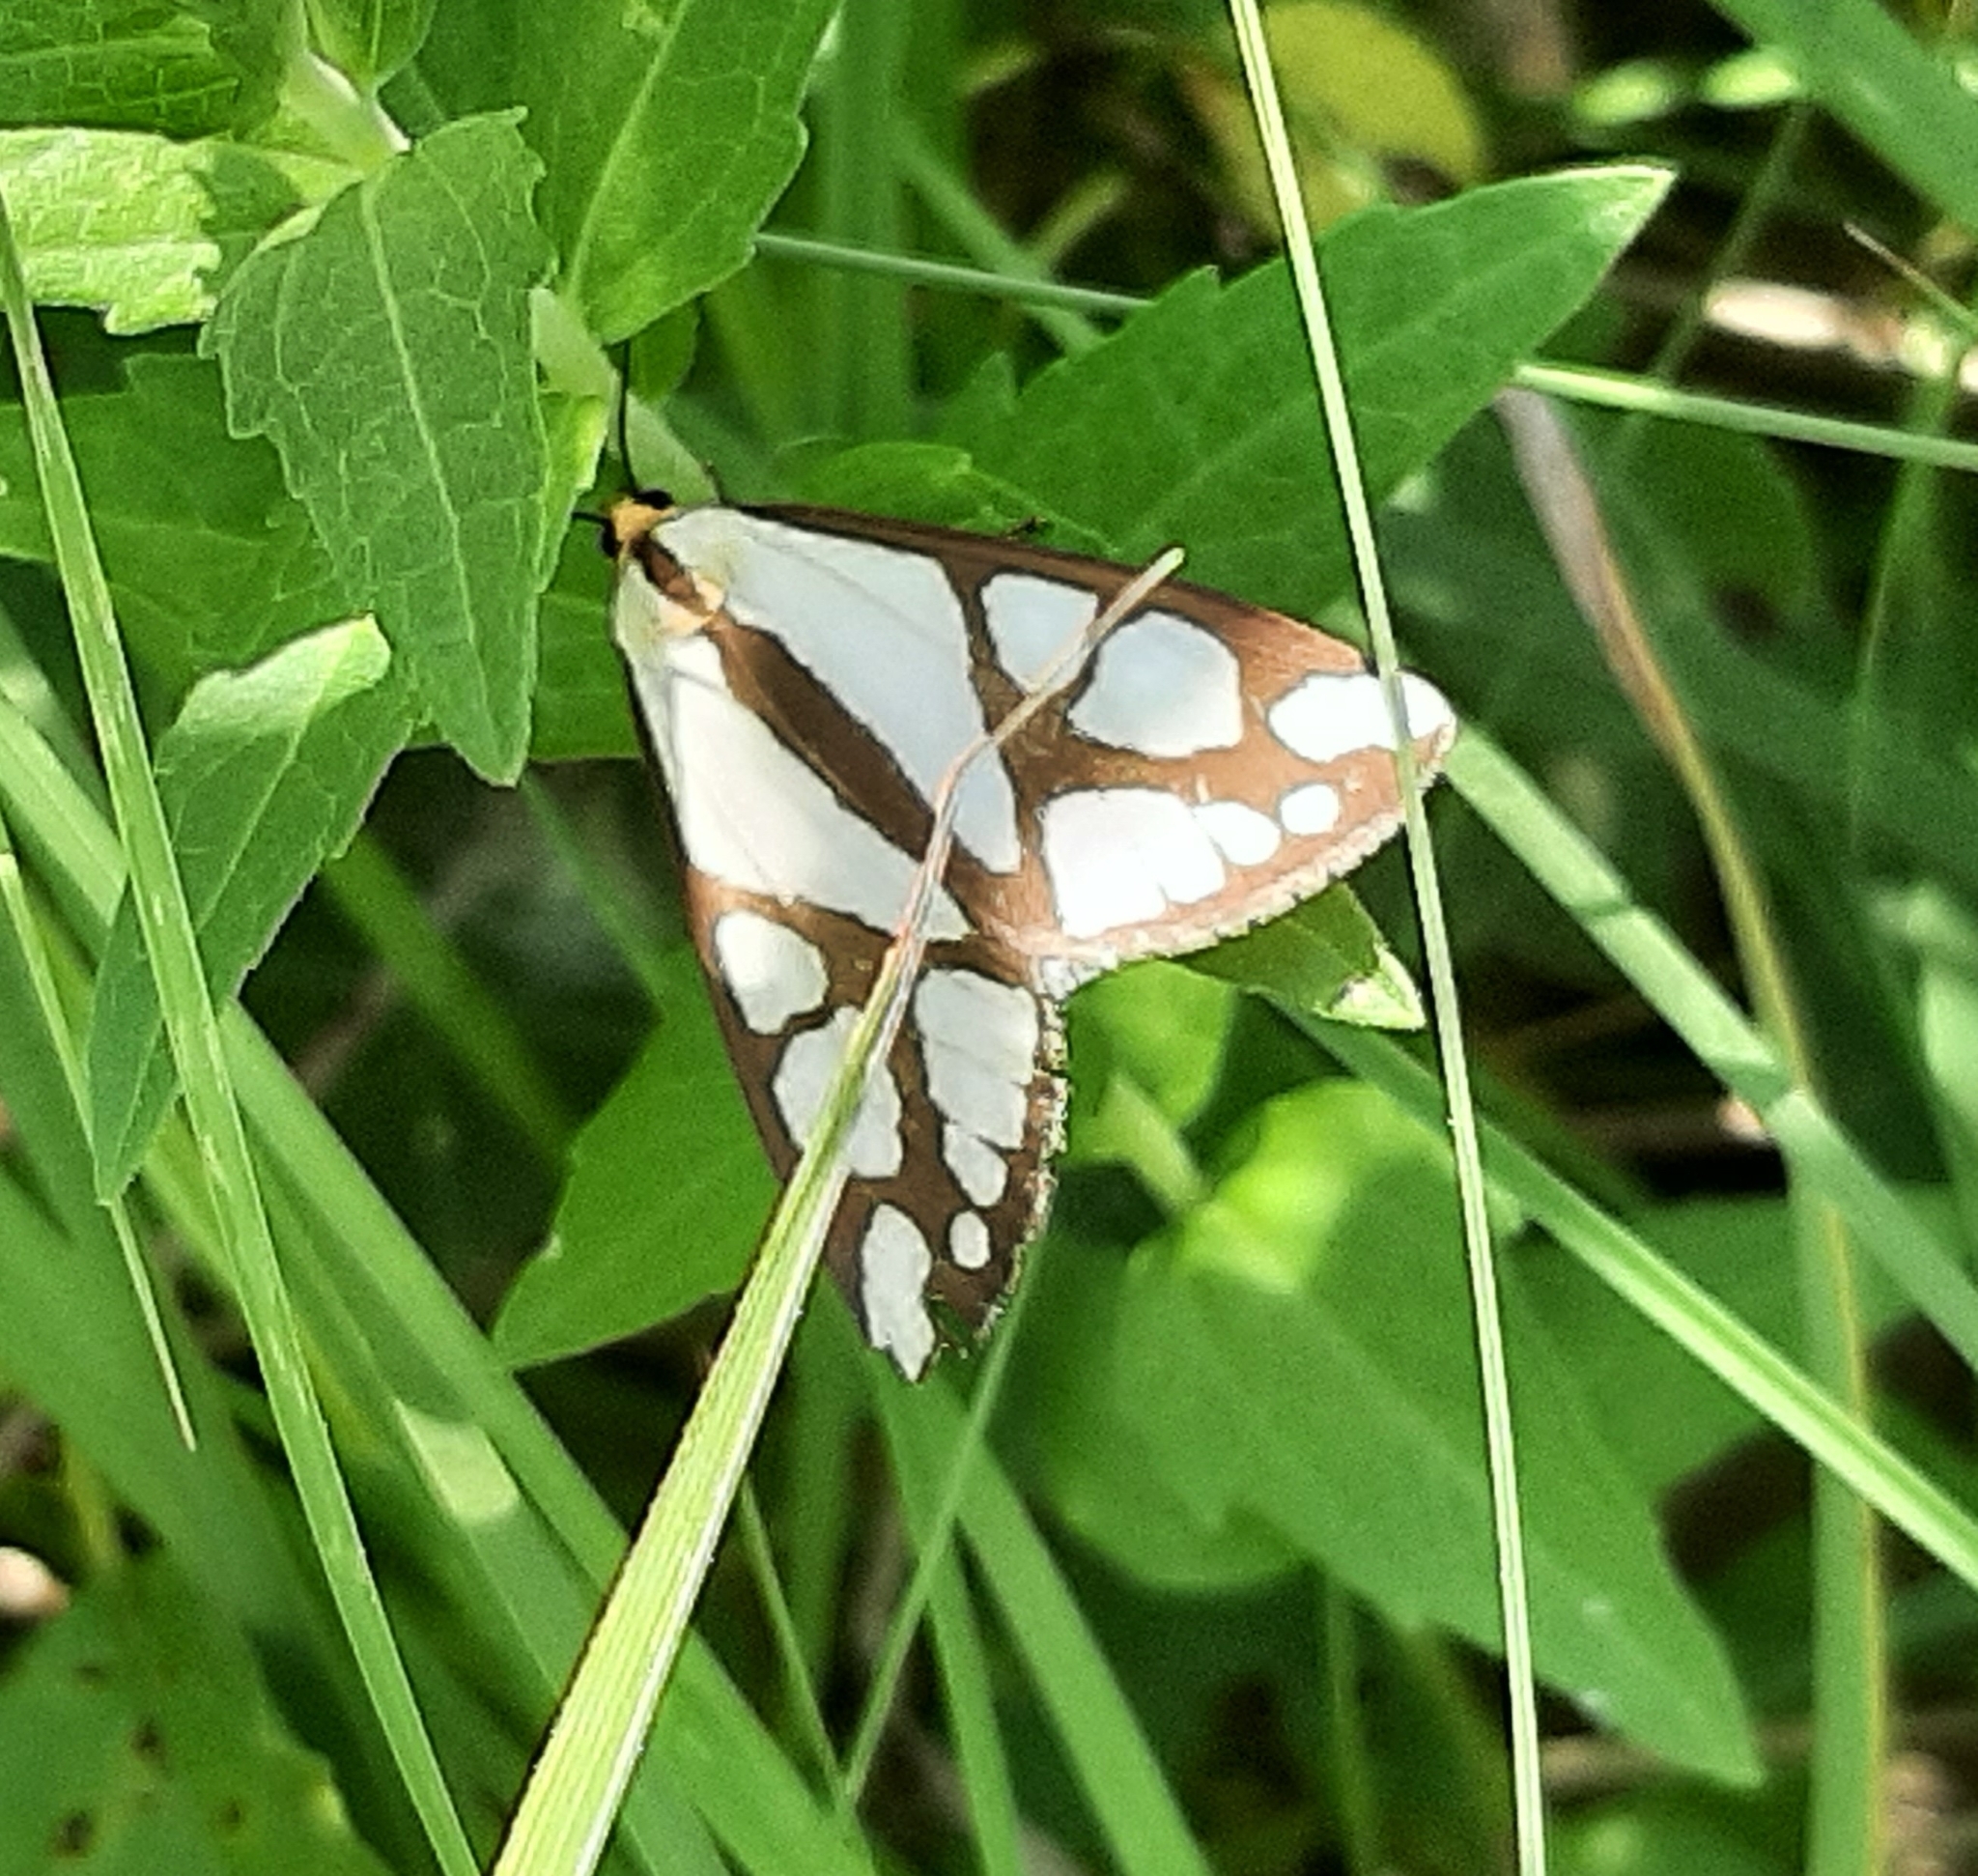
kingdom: Animalia
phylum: Arthropoda
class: Insecta
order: Lepidoptera
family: Erebidae
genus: Haploa
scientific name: Haploa reversa
